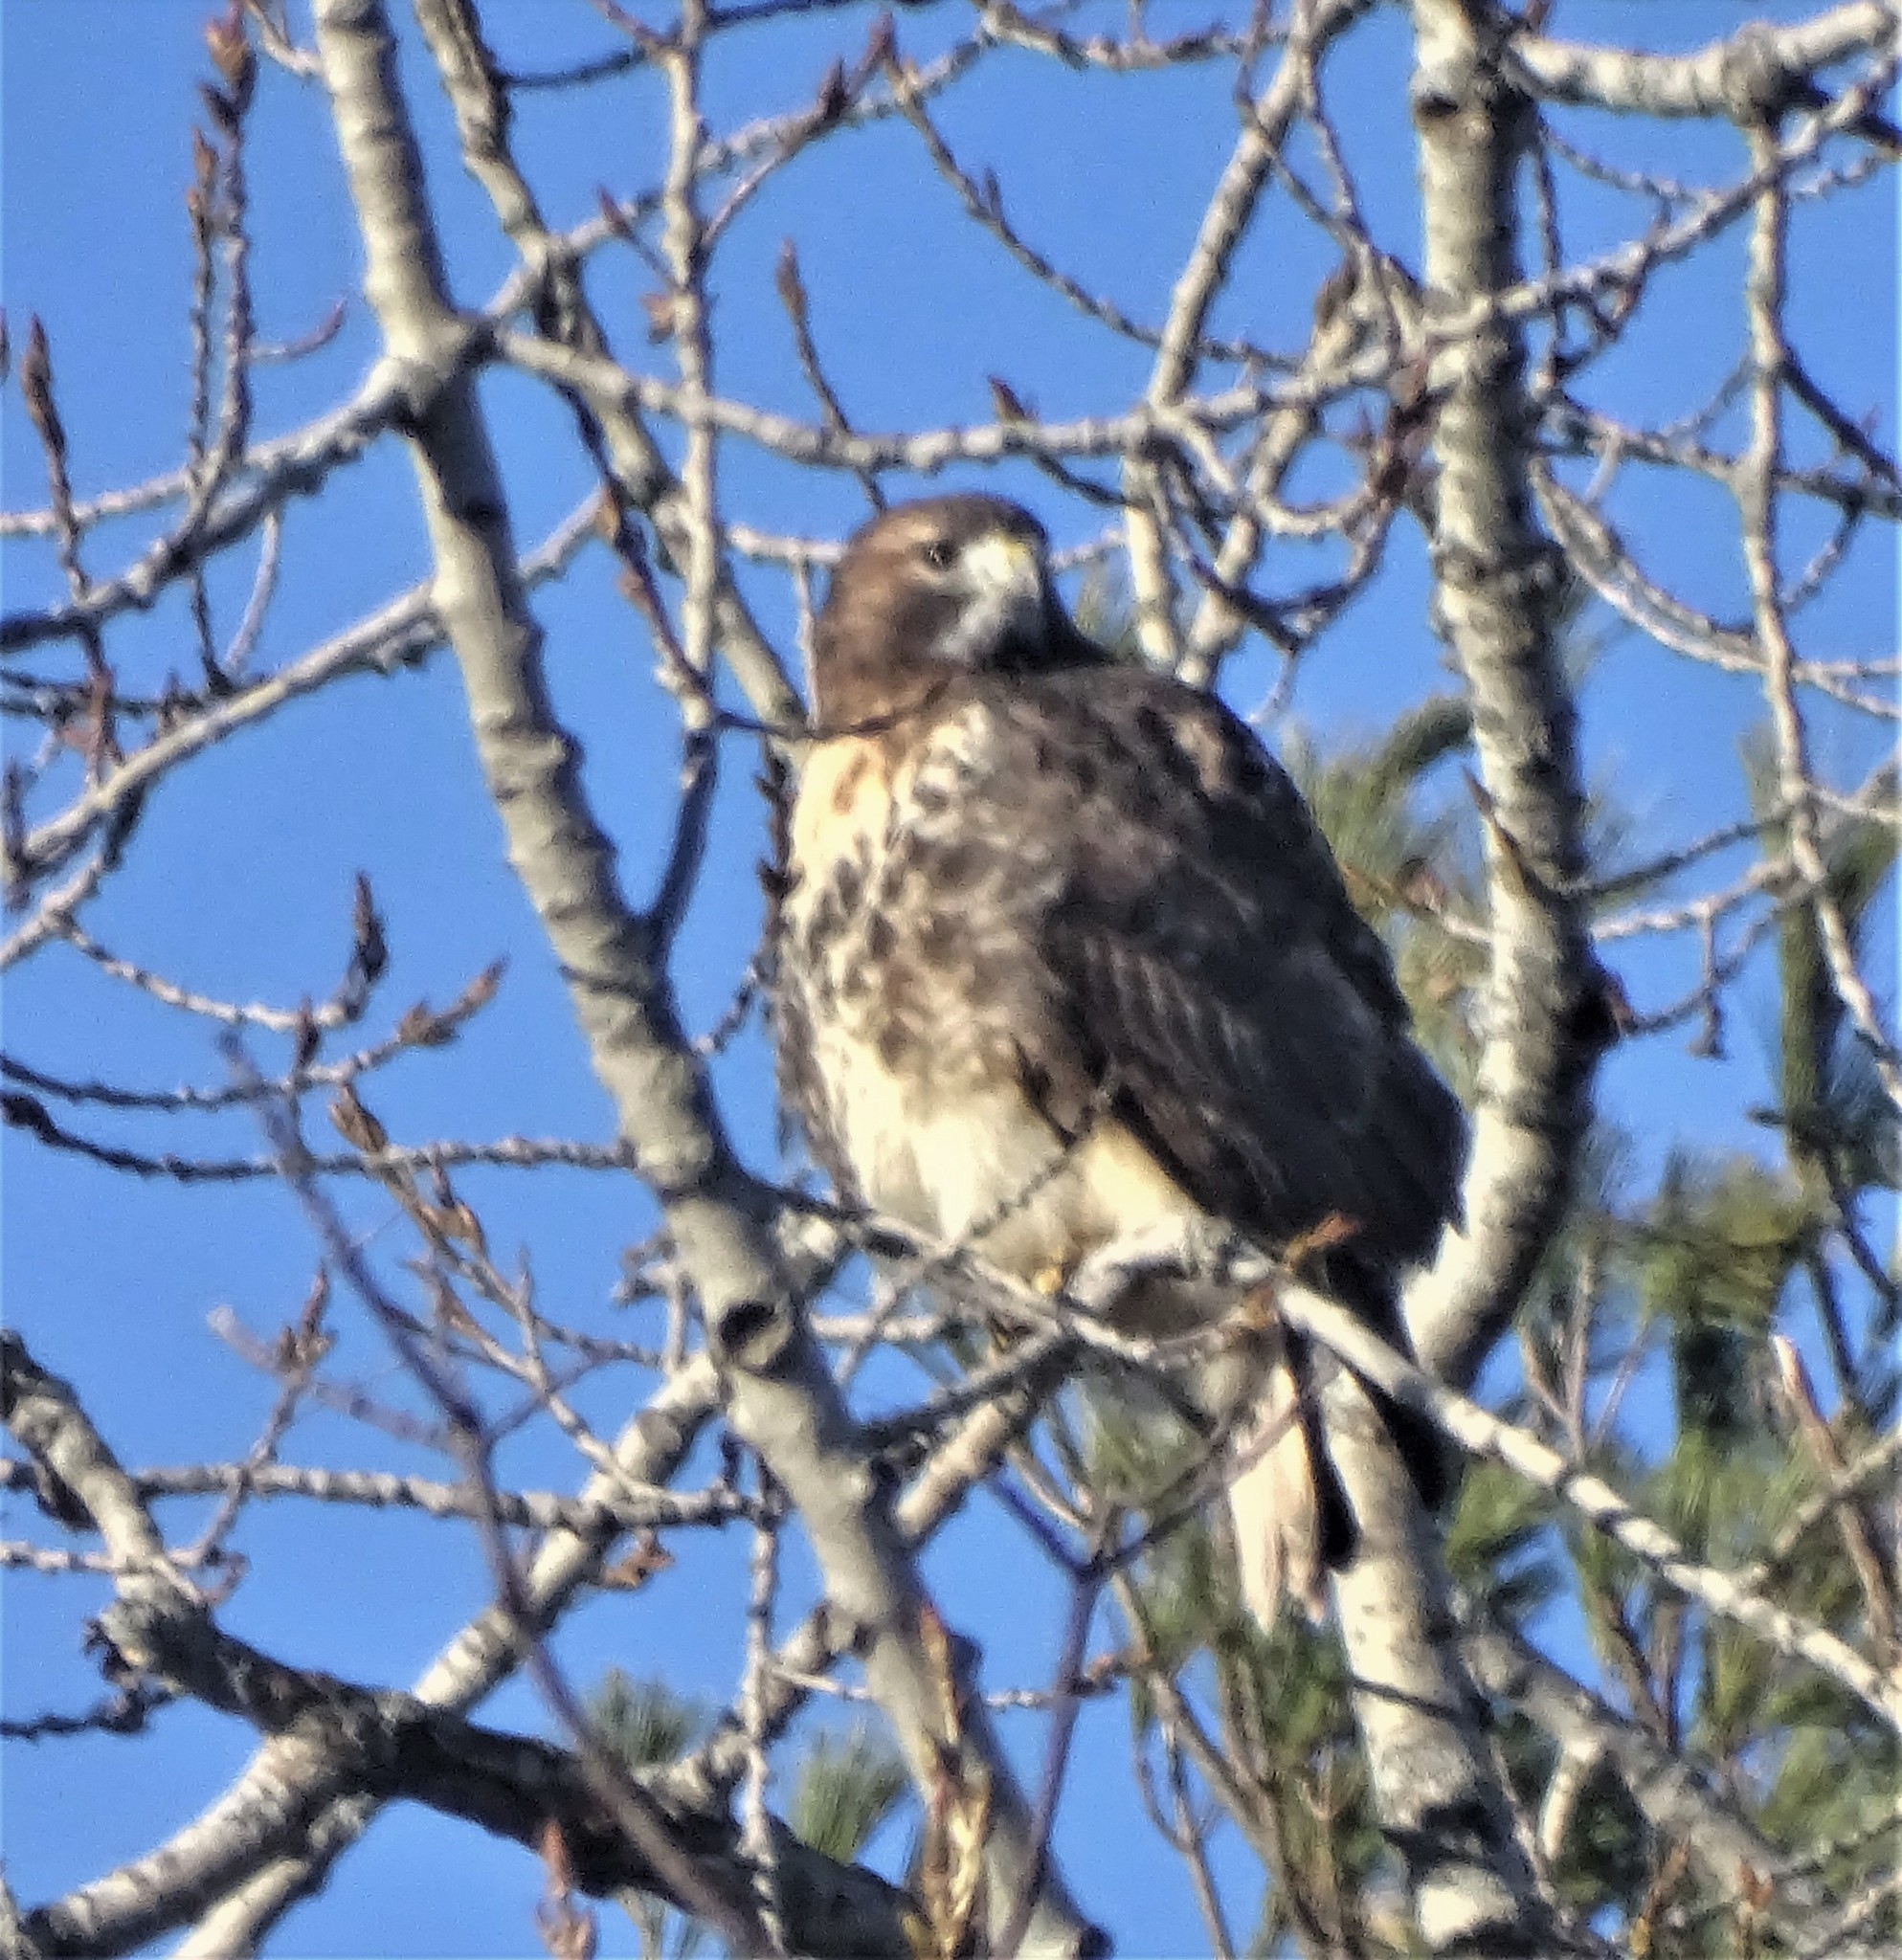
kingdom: Animalia
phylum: Chordata
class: Aves
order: Accipitriformes
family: Accipitridae
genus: Buteo
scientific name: Buteo jamaicensis
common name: Red-tailed hawk
